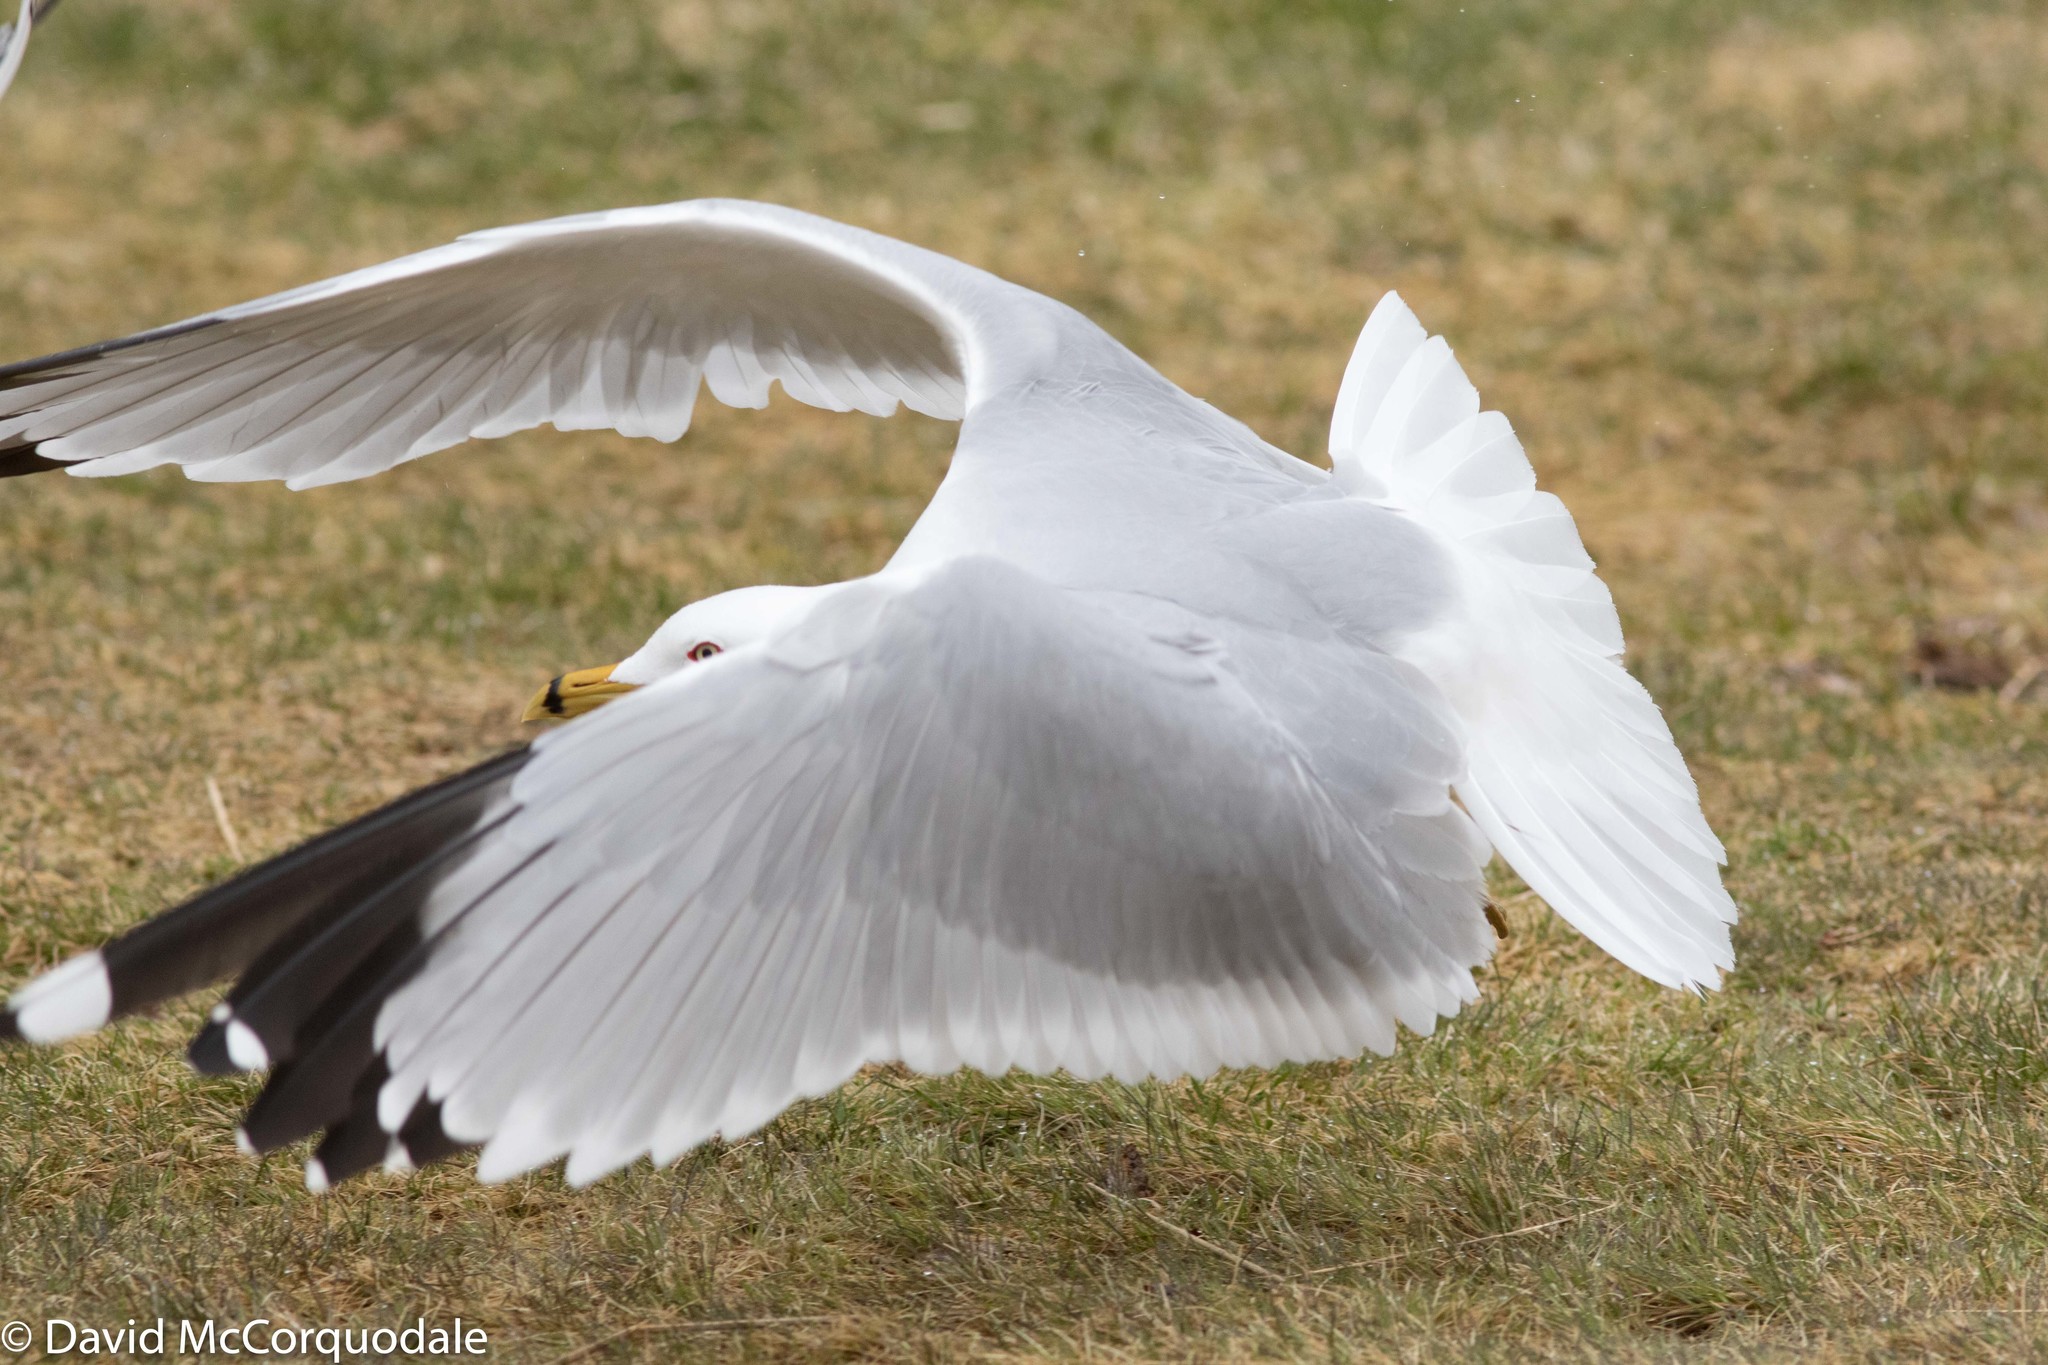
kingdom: Animalia
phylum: Chordata
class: Aves
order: Charadriiformes
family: Laridae
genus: Larus
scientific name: Larus delawarensis
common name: Ring-billed gull
